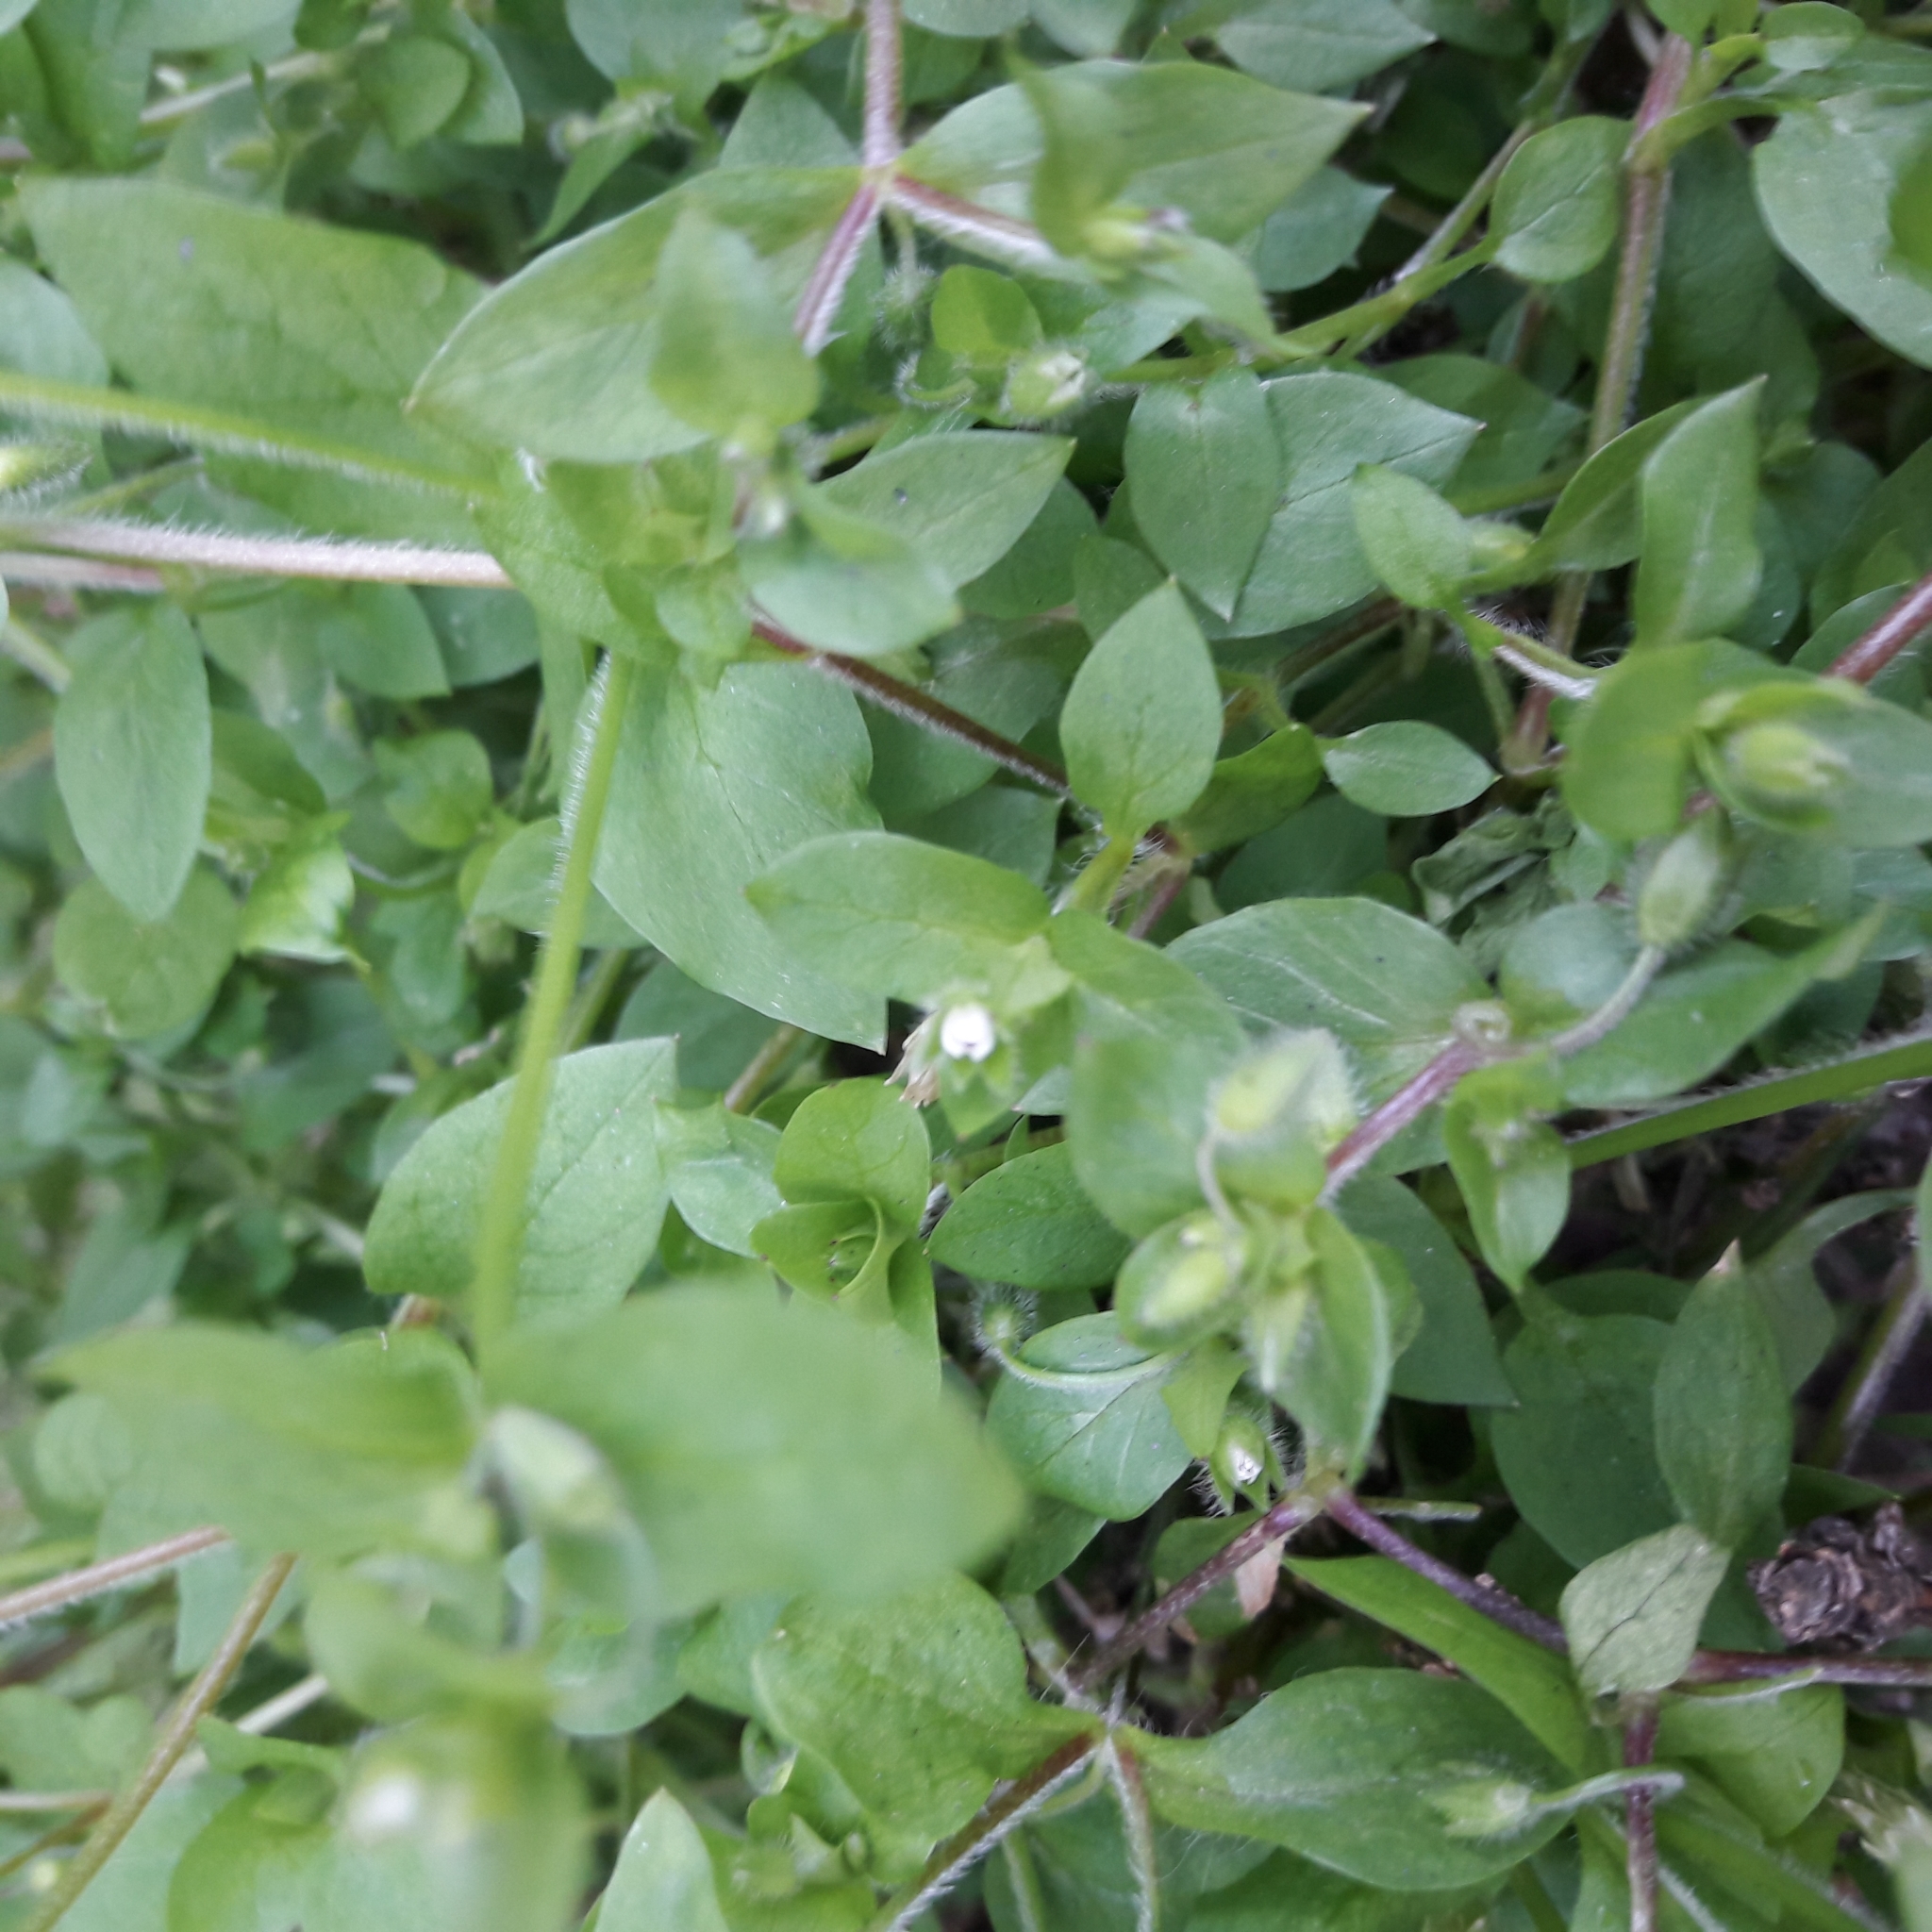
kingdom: Plantae
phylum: Tracheophyta
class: Magnoliopsida
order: Caryophyllales
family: Caryophyllaceae
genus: Stellaria
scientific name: Stellaria media
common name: Common chickweed
